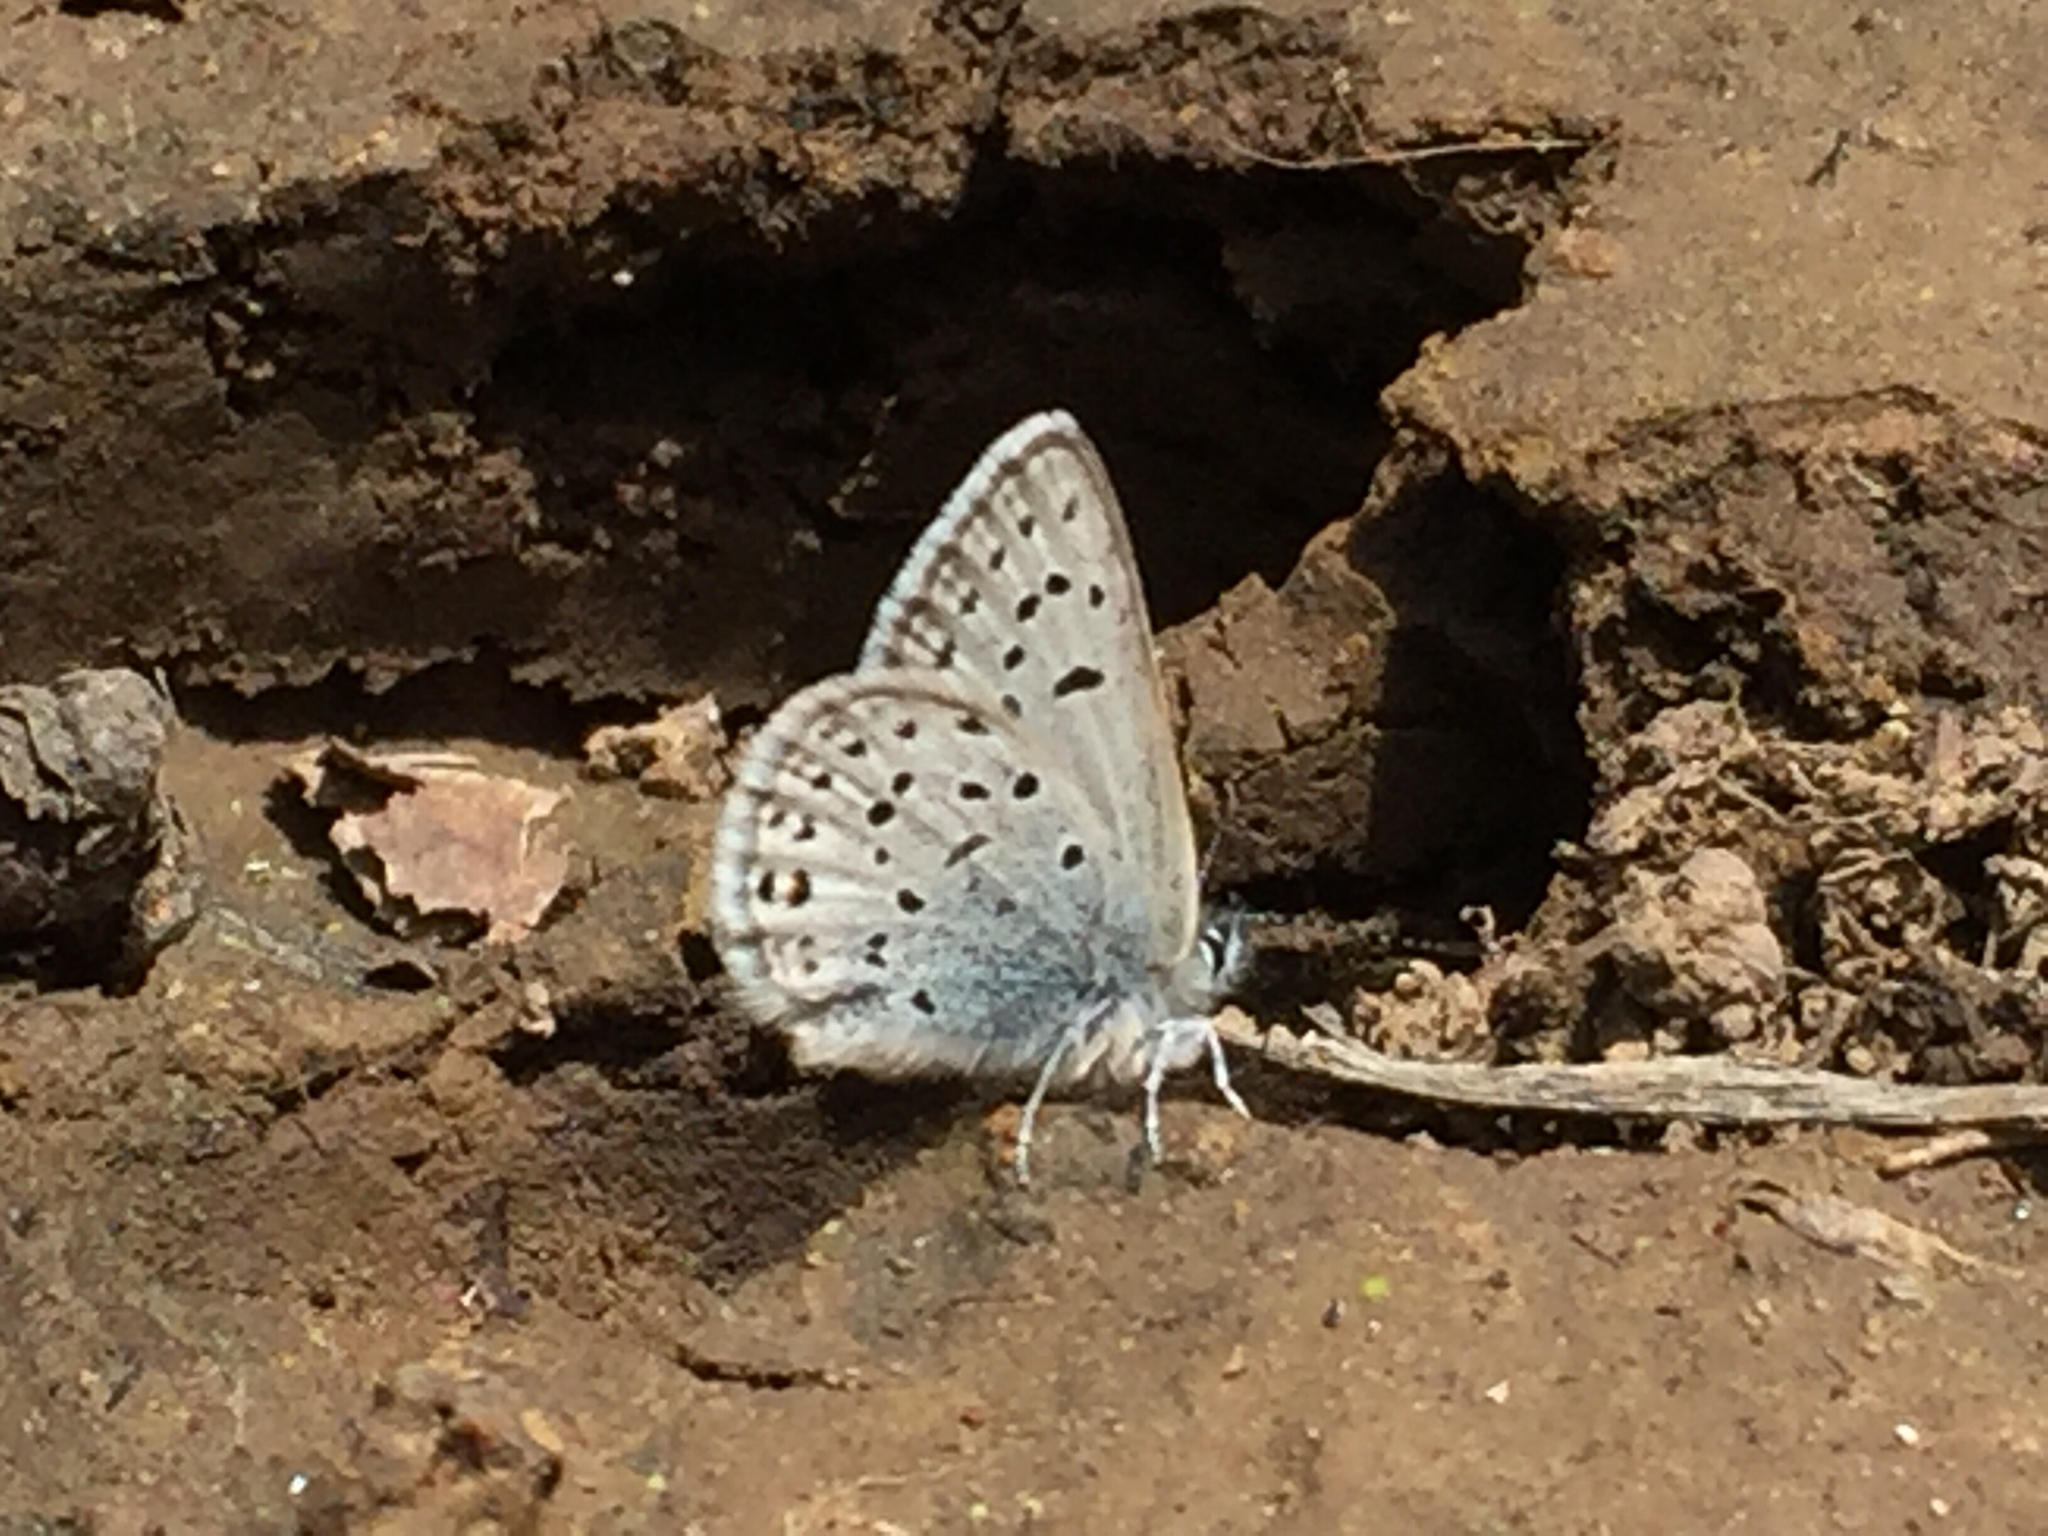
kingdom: Animalia
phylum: Arthropoda
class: Insecta
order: Lepidoptera
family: Lycaenidae
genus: Icaricia
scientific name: Icaricia saepiolus
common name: Greenish blue
